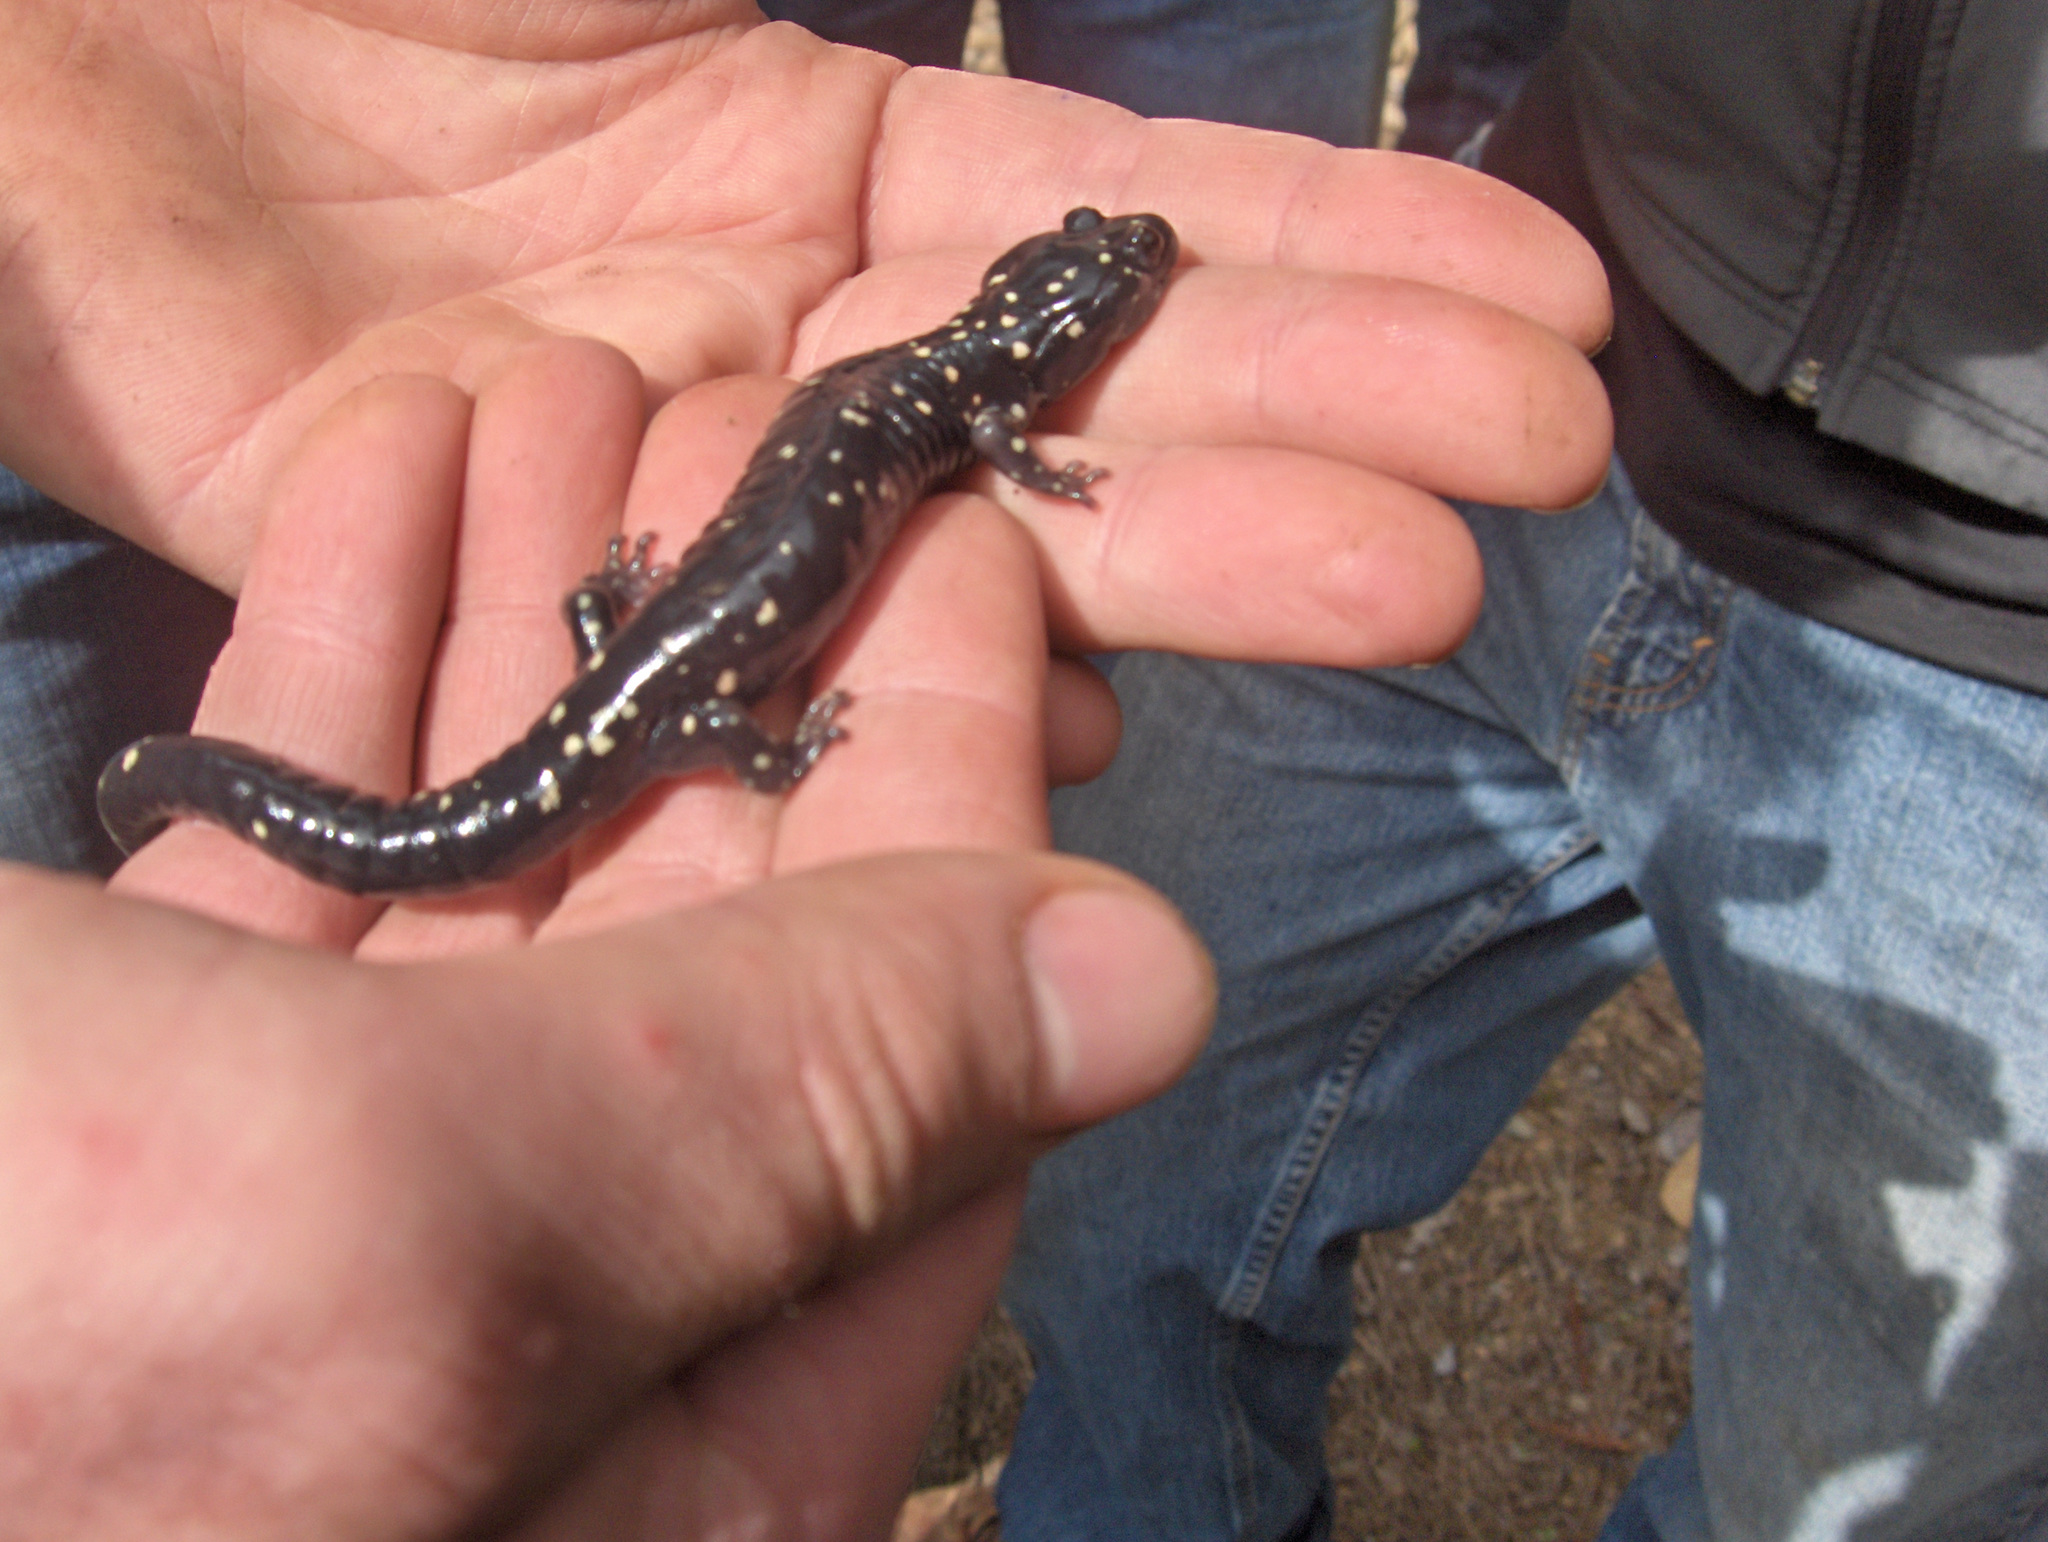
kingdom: Animalia
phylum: Chordata
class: Amphibia
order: Caudata
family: Plethodontidae
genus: Aneides
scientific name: Aneides flavipunctatus
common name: Black salamander
